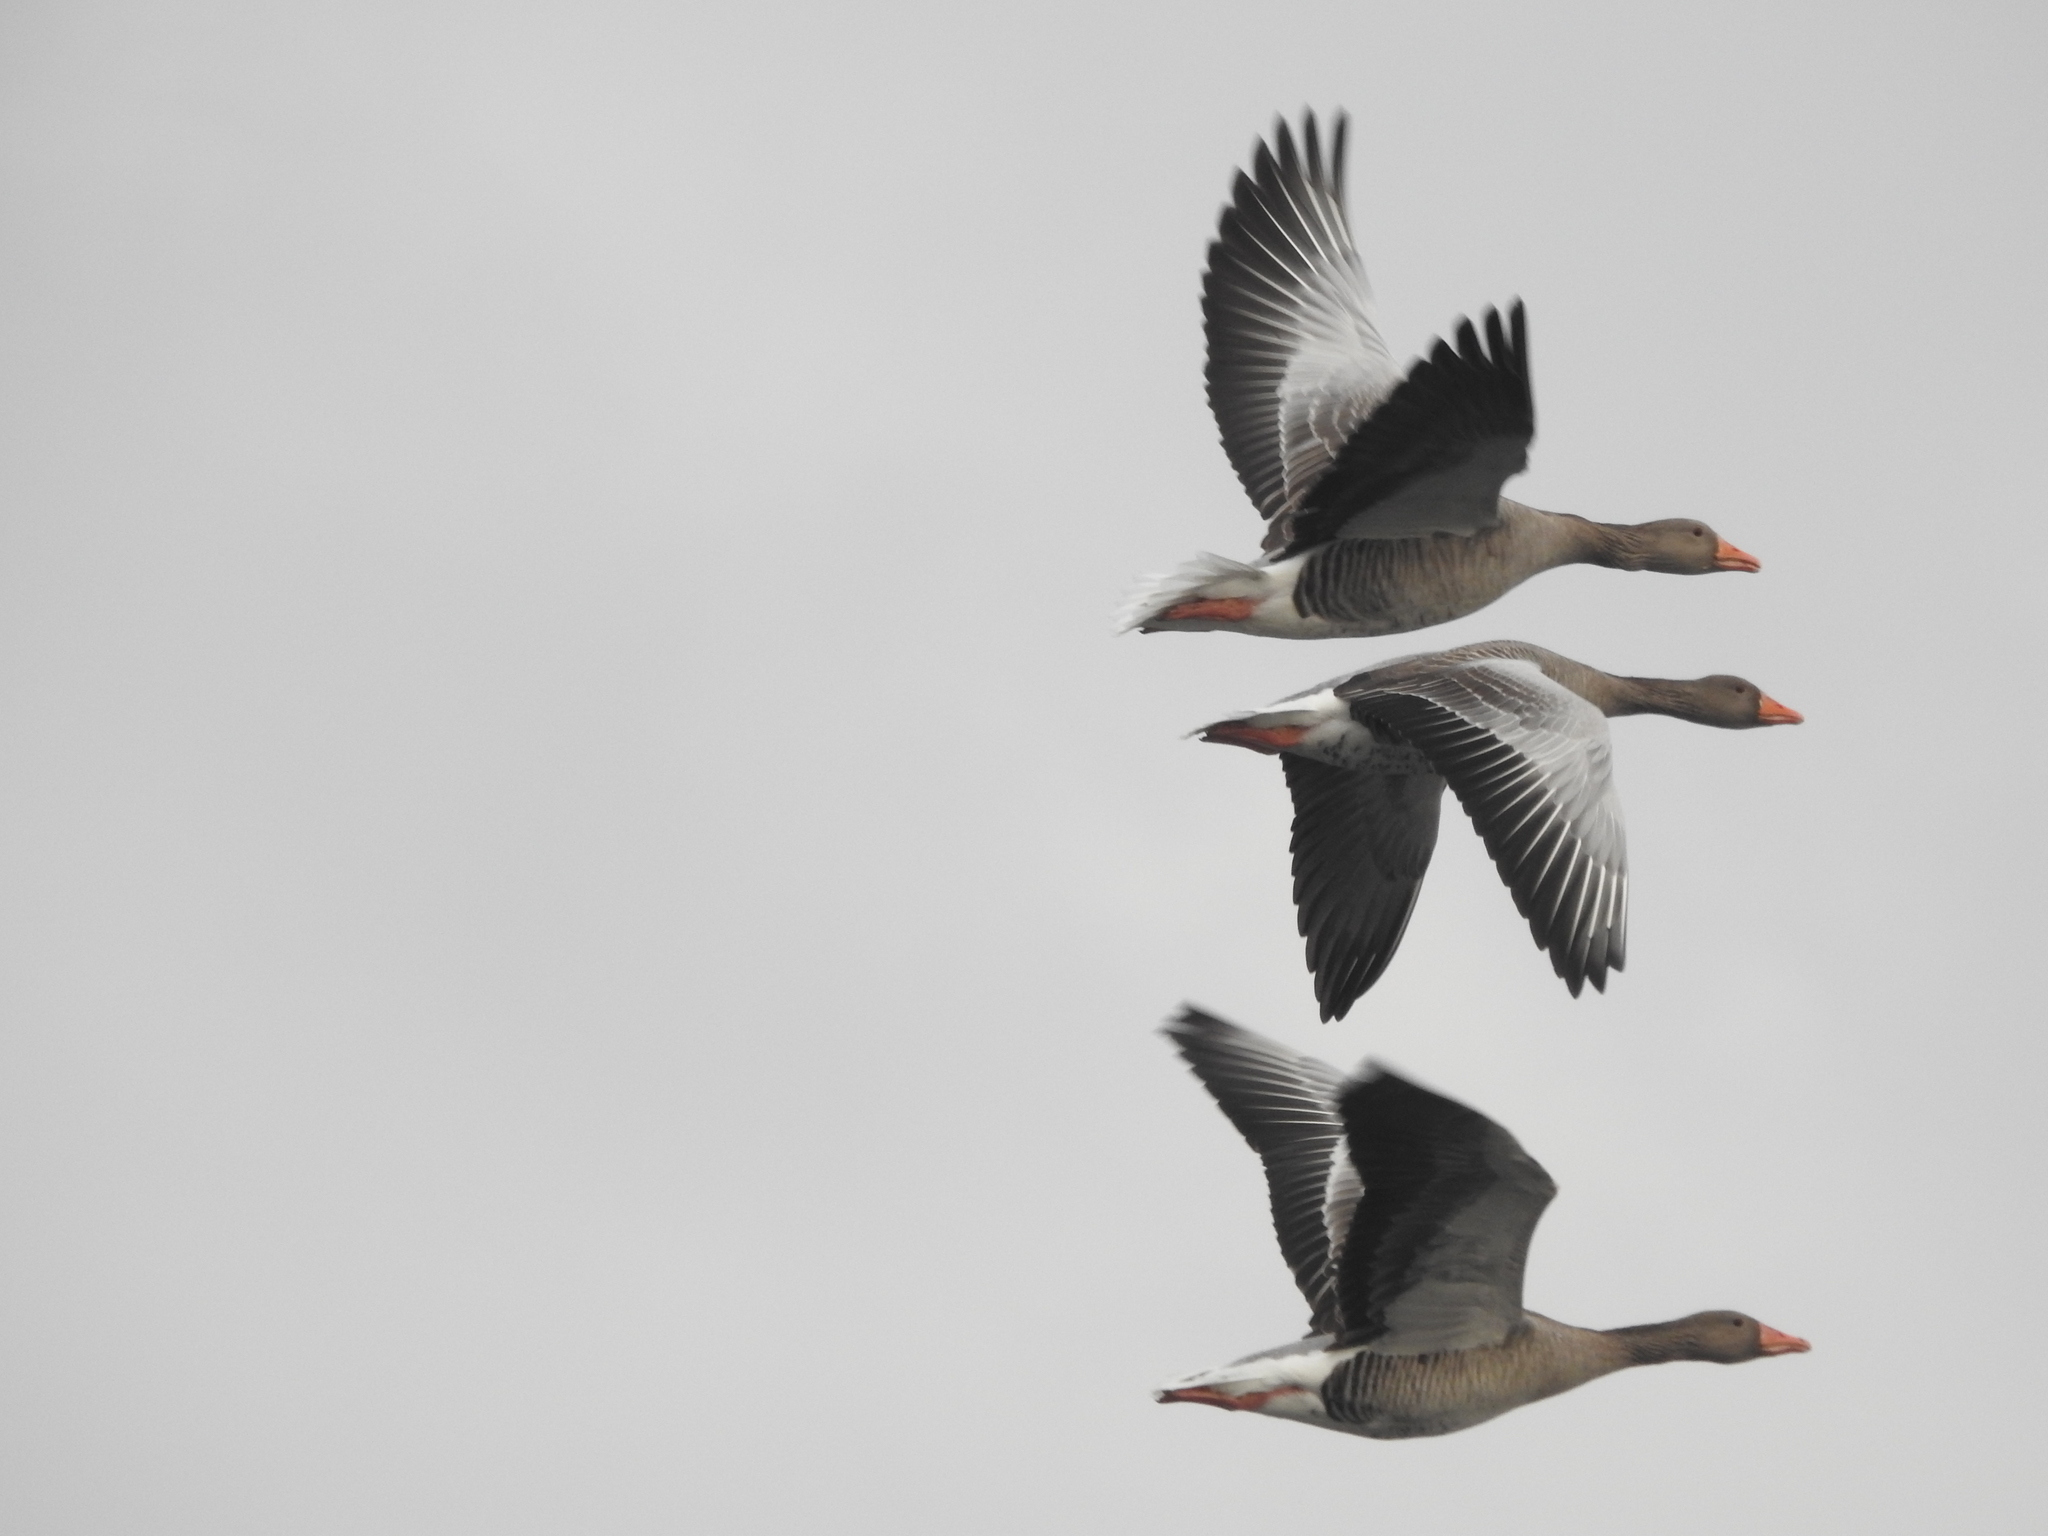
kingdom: Animalia
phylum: Chordata
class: Aves
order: Anseriformes
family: Anatidae
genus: Anser
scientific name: Anser anser
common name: Greylag goose
